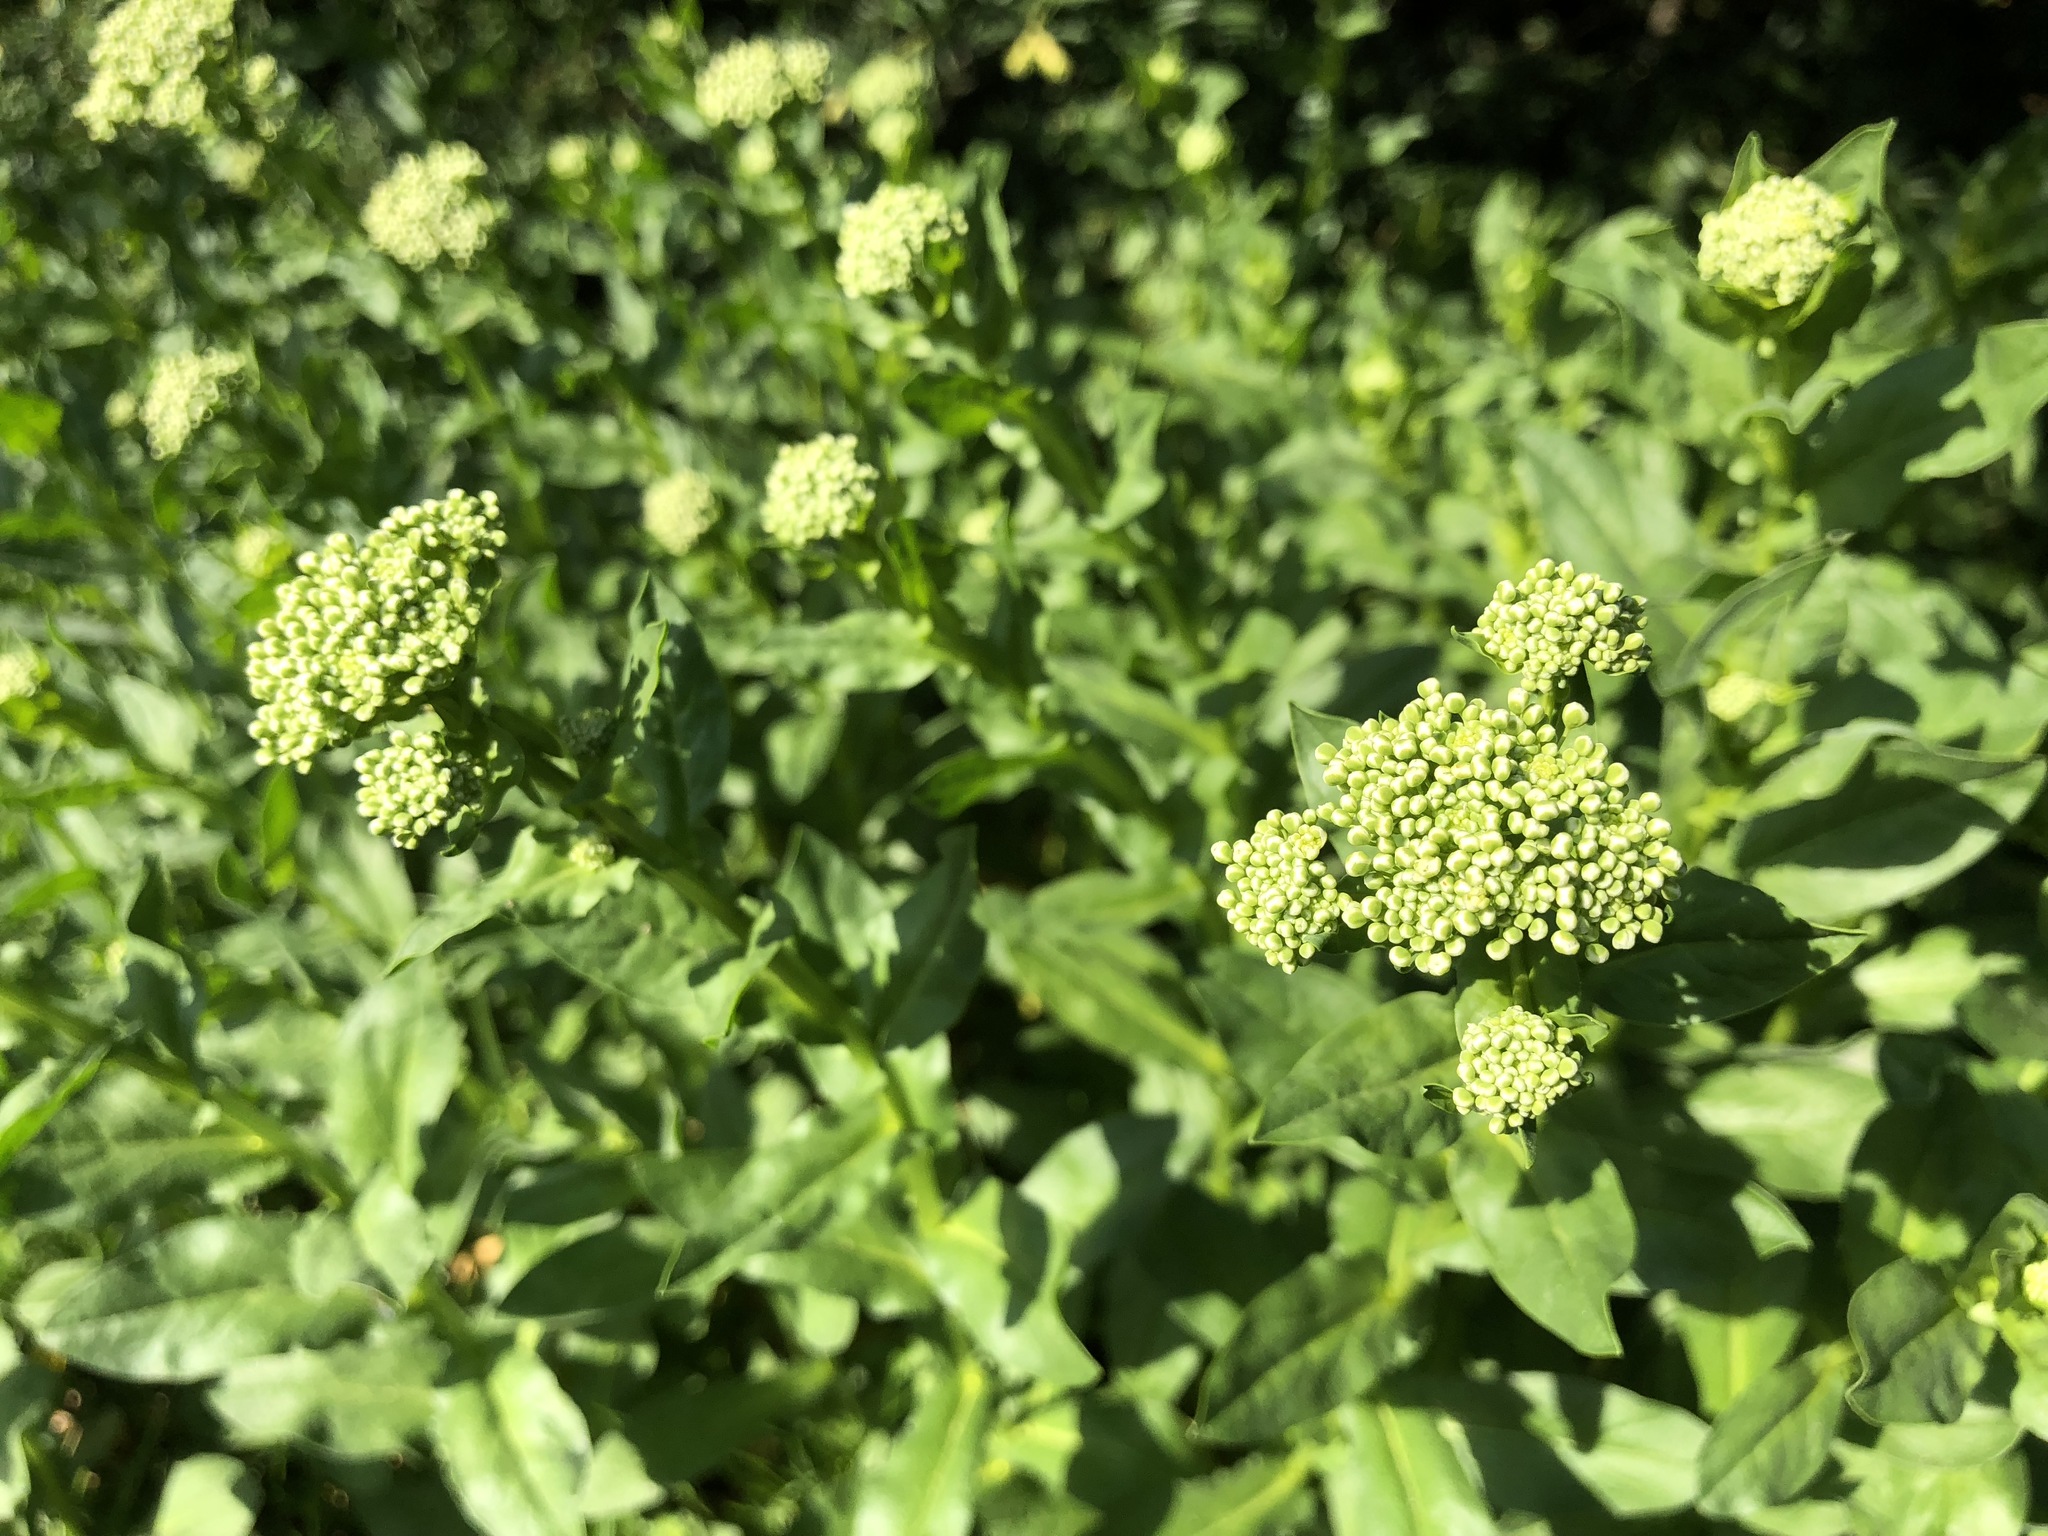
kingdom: Plantae
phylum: Tracheophyta
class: Magnoliopsida
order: Brassicales
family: Brassicaceae
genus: Lepidium
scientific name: Lepidium draba
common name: Hoary cress
